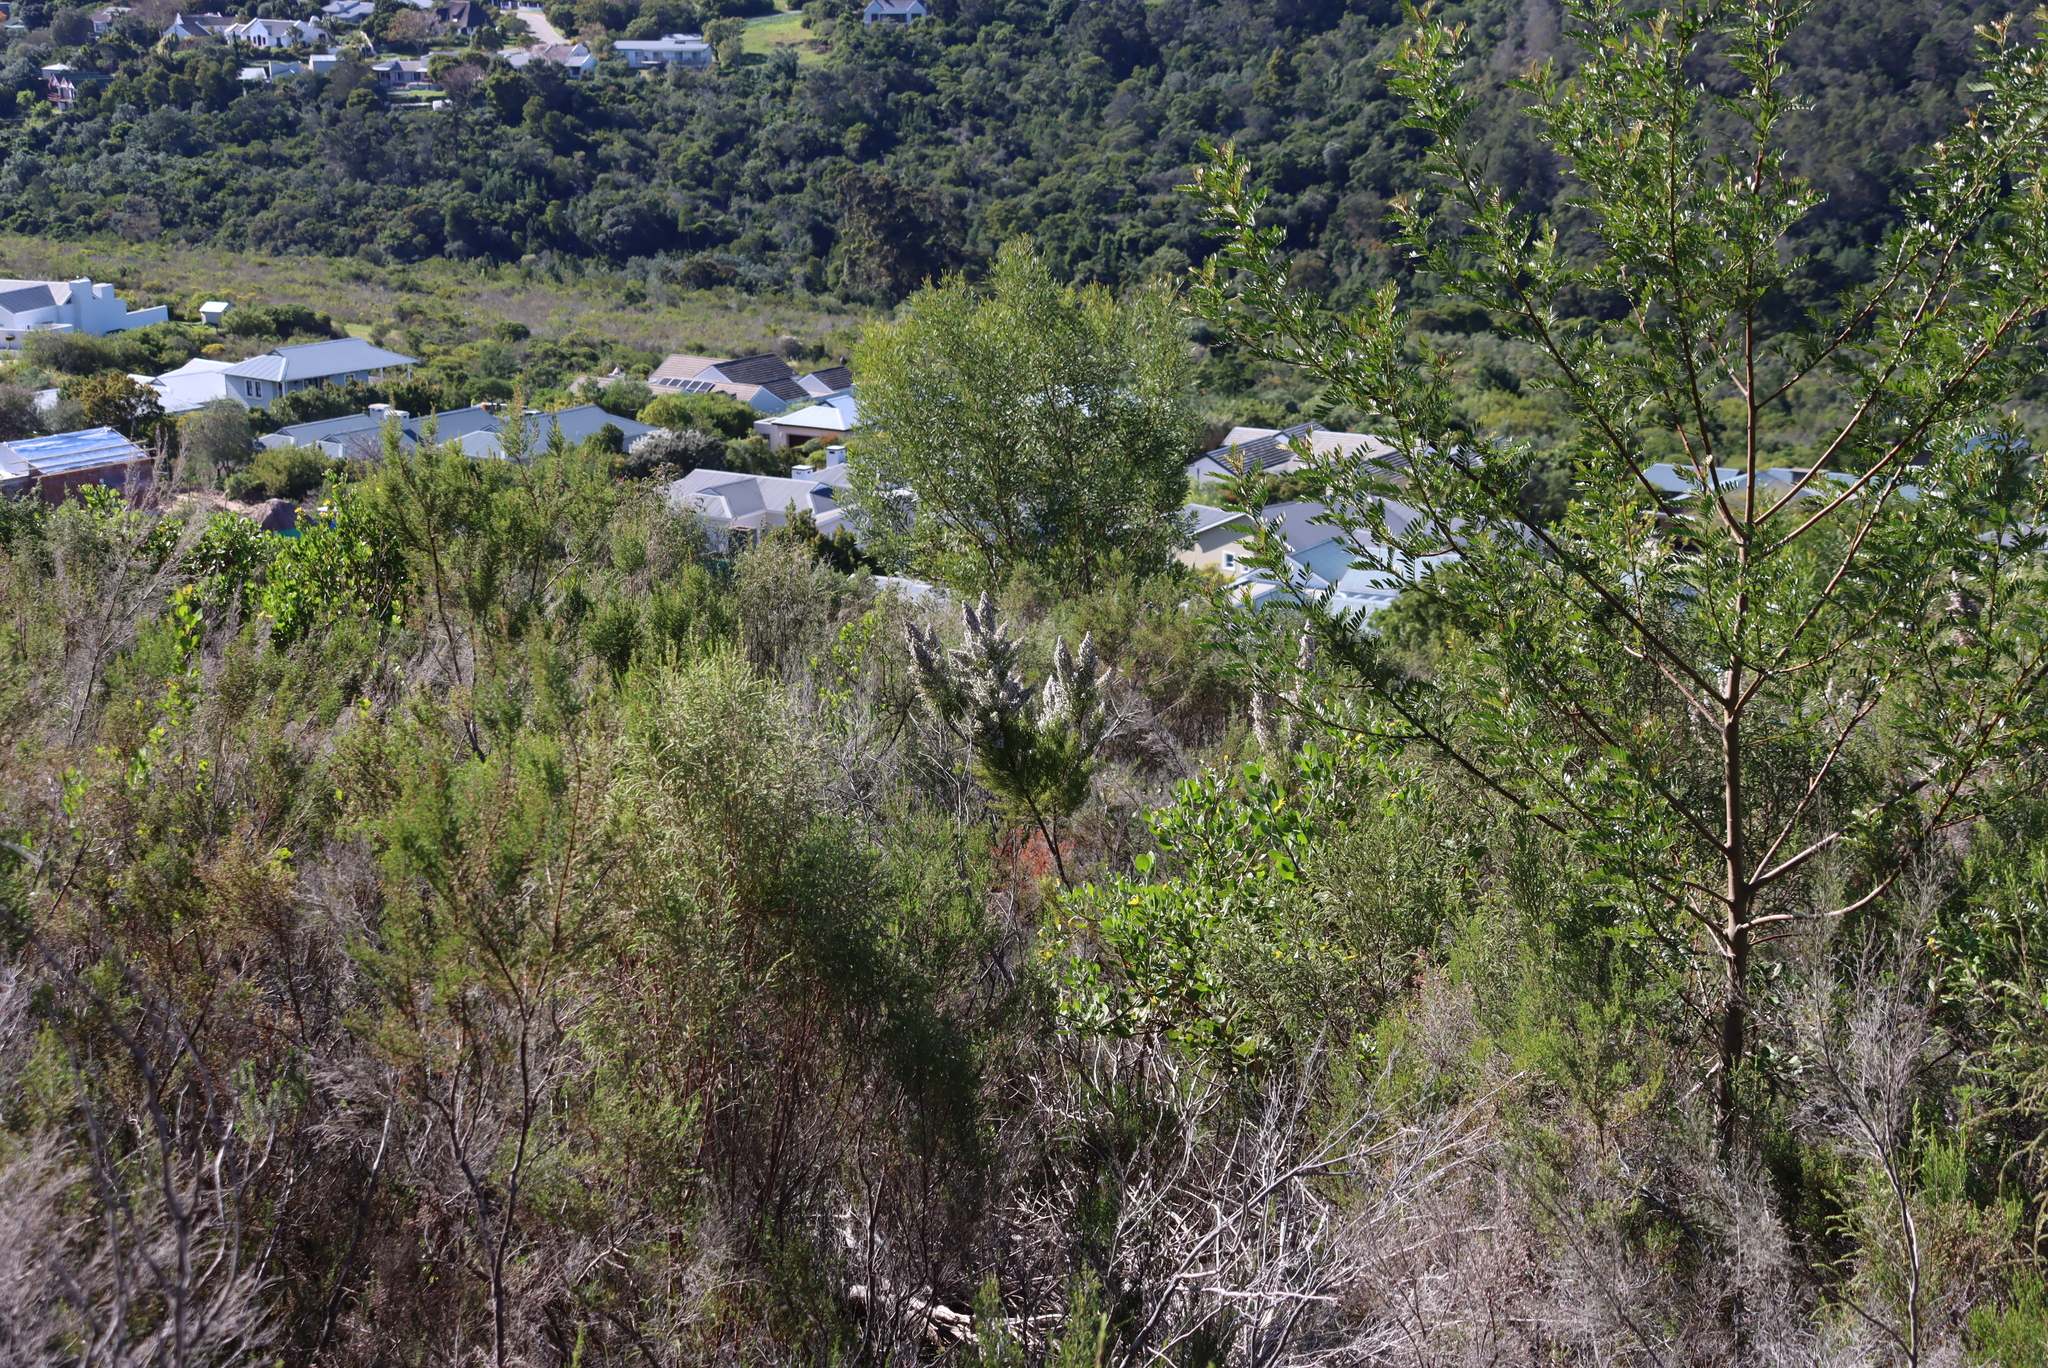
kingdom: Plantae
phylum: Tracheophyta
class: Magnoliopsida
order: Ericales
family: Ericaceae
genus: Erica
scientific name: Erica scabriuscula
